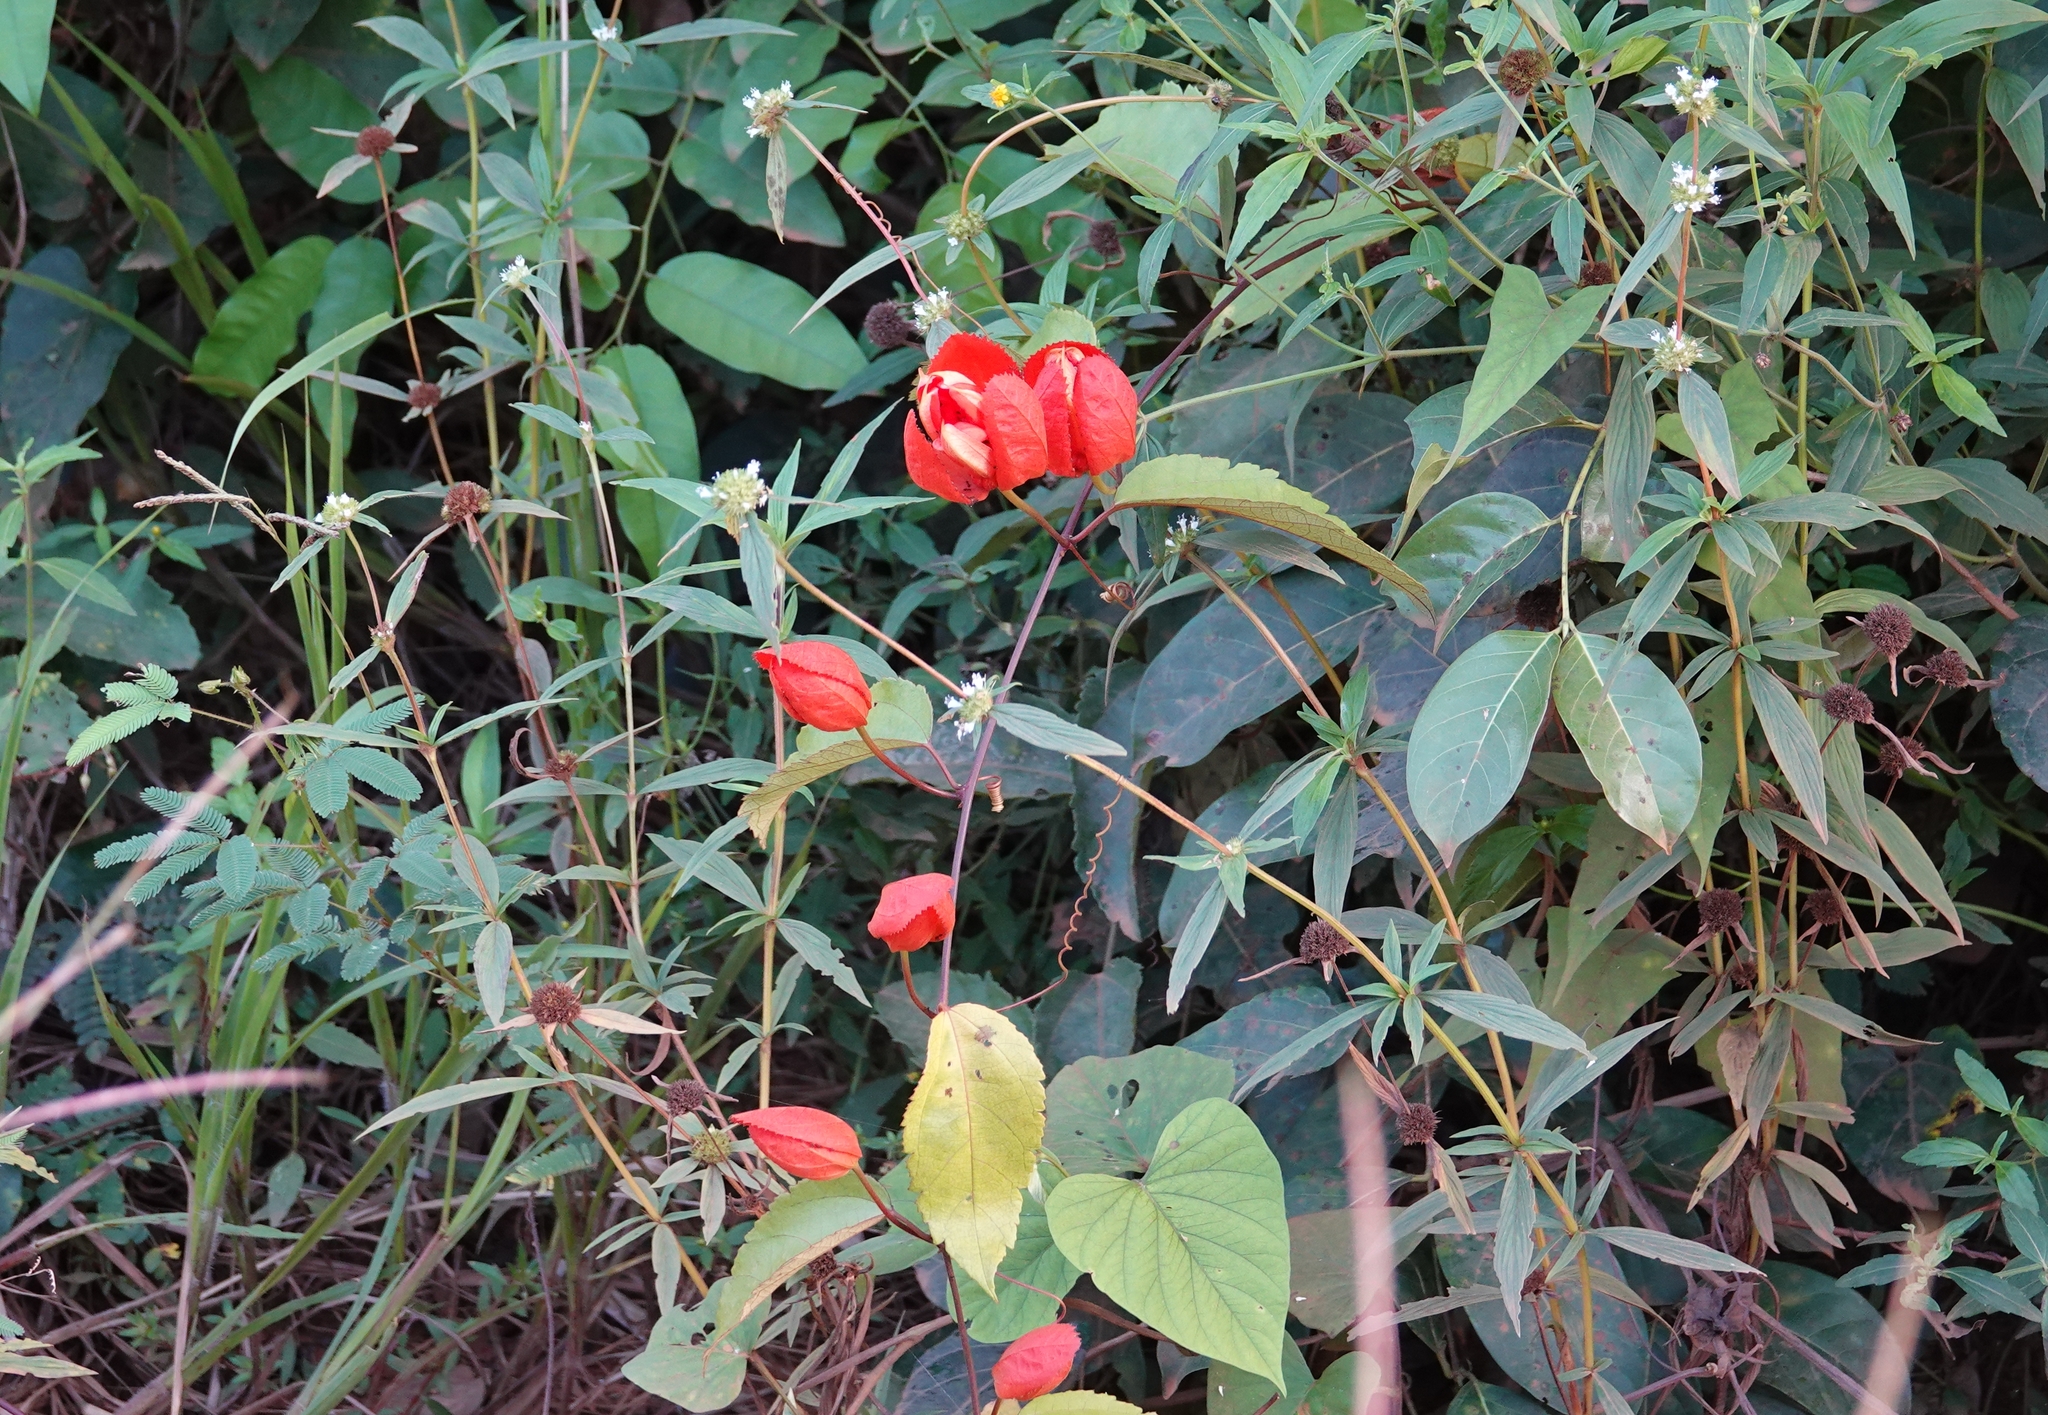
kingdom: Plantae
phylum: Tracheophyta
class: Magnoliopsida
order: Malpighiales
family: Passifloraceae
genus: Passiflora
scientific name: Passiflora coccinea
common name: Scarlet passionflower
